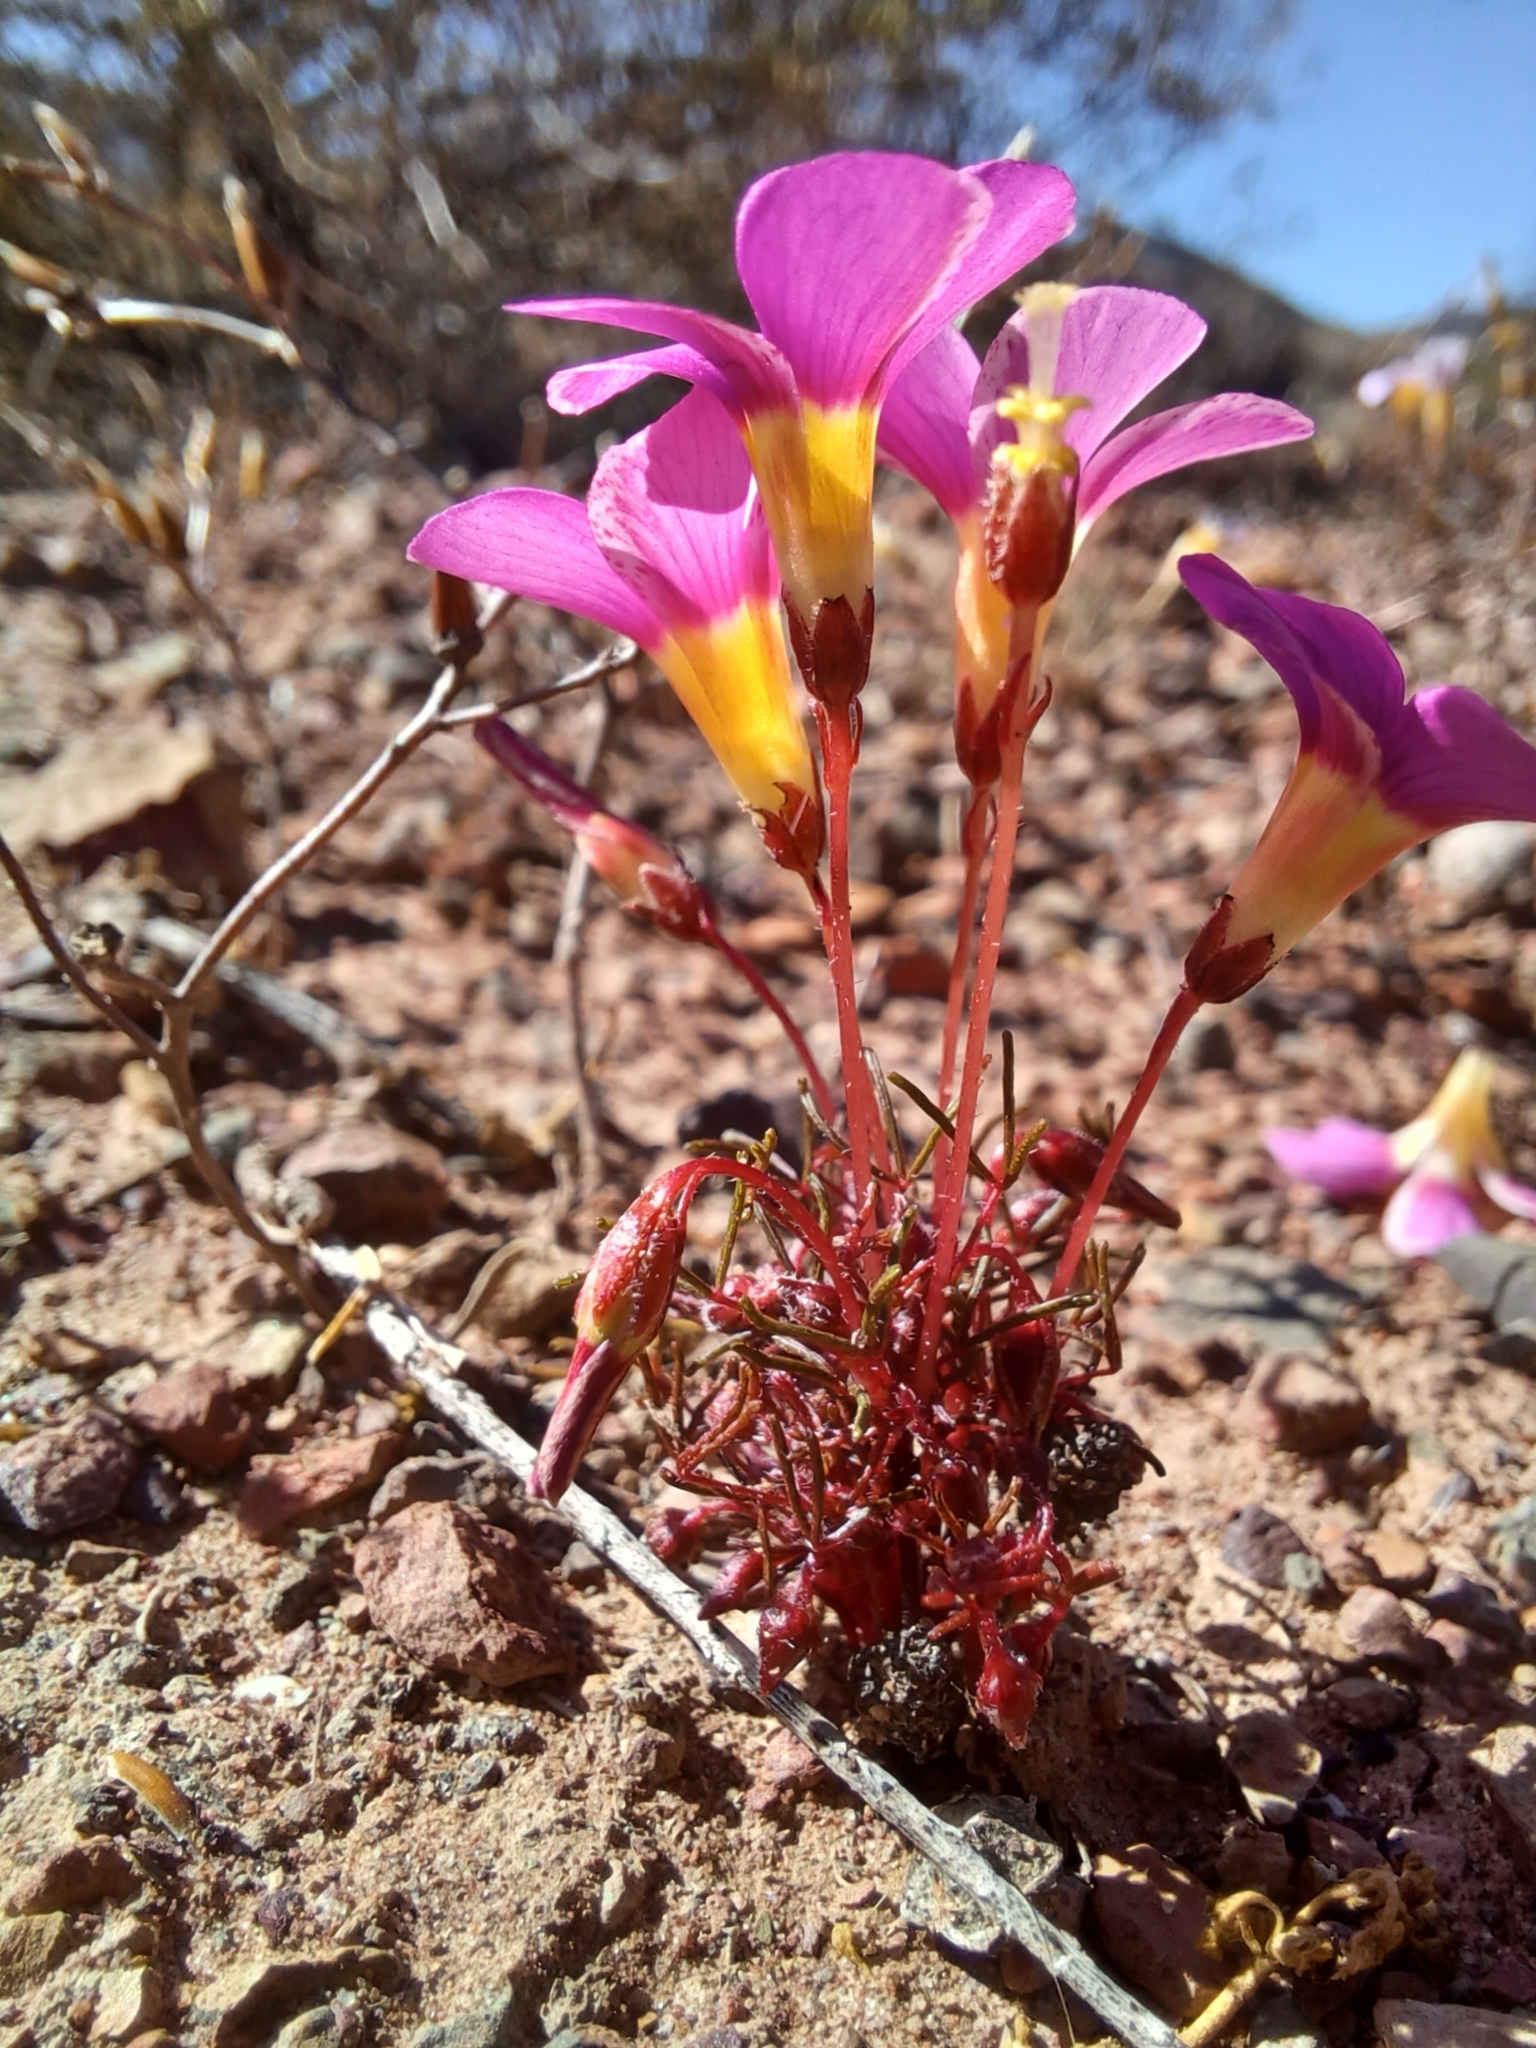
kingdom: Plantae
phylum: Tracheophyta
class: Magnoliopsida
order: Oxalidales
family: Oxalidaceae
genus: Oxalis
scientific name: Oxalis leptogramma
